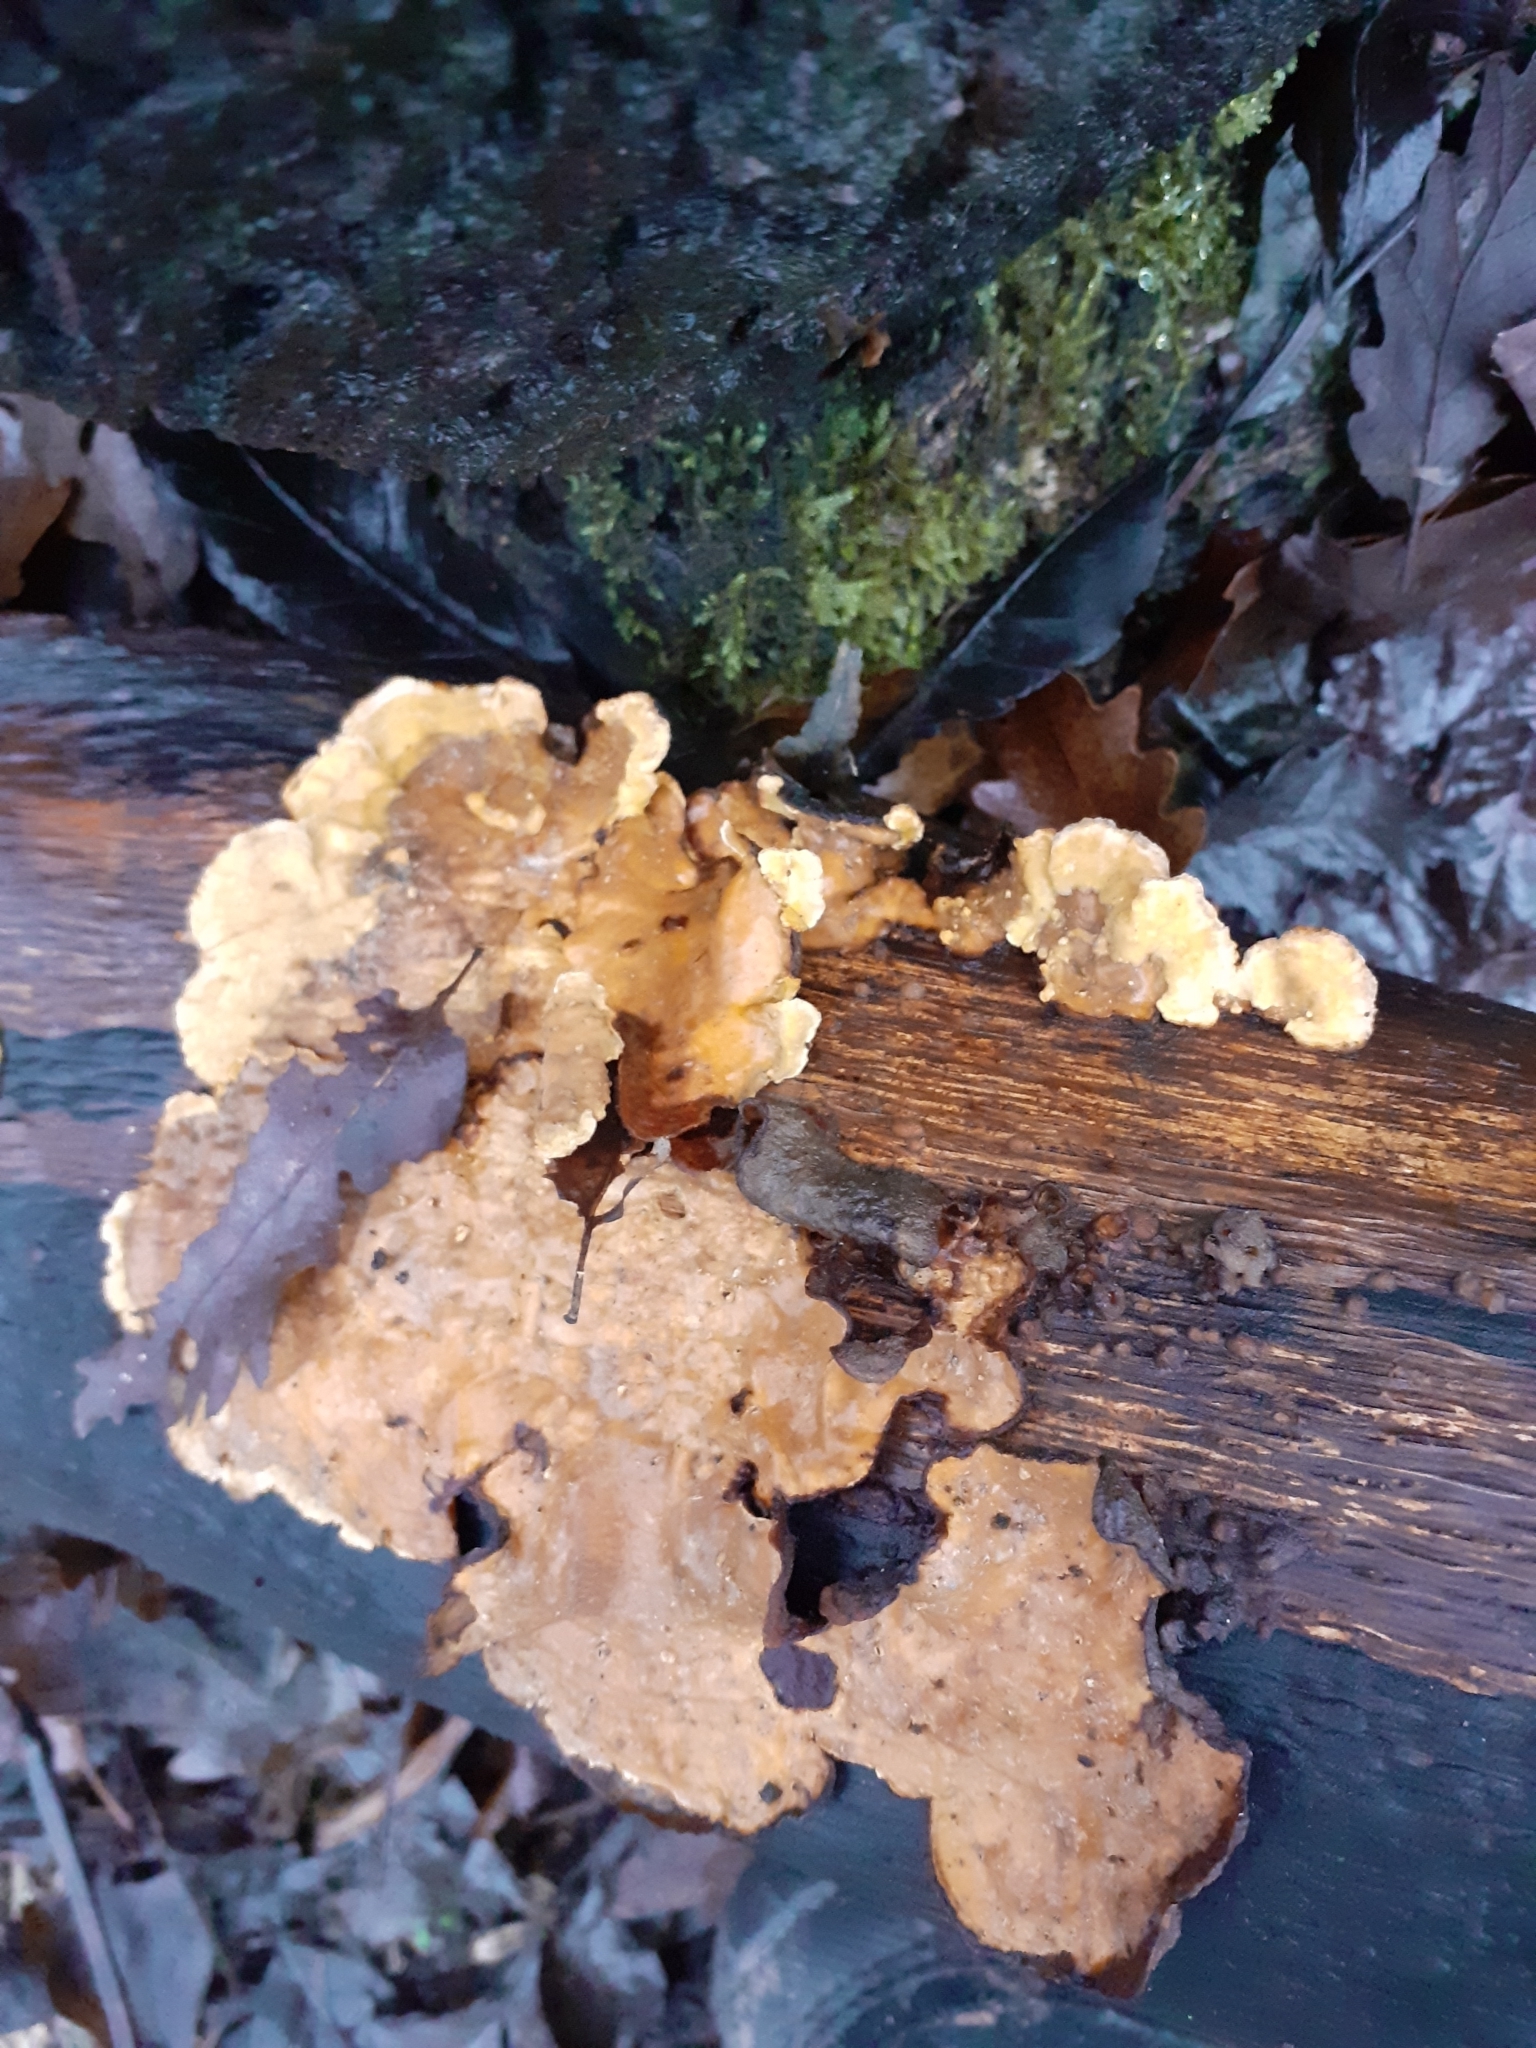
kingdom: Fungi
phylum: Basidiomycota
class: Agaricomycetes
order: Russulales
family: Stereaceae
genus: Stereum
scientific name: Stereum hirsutum
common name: Hairy curtain crust
